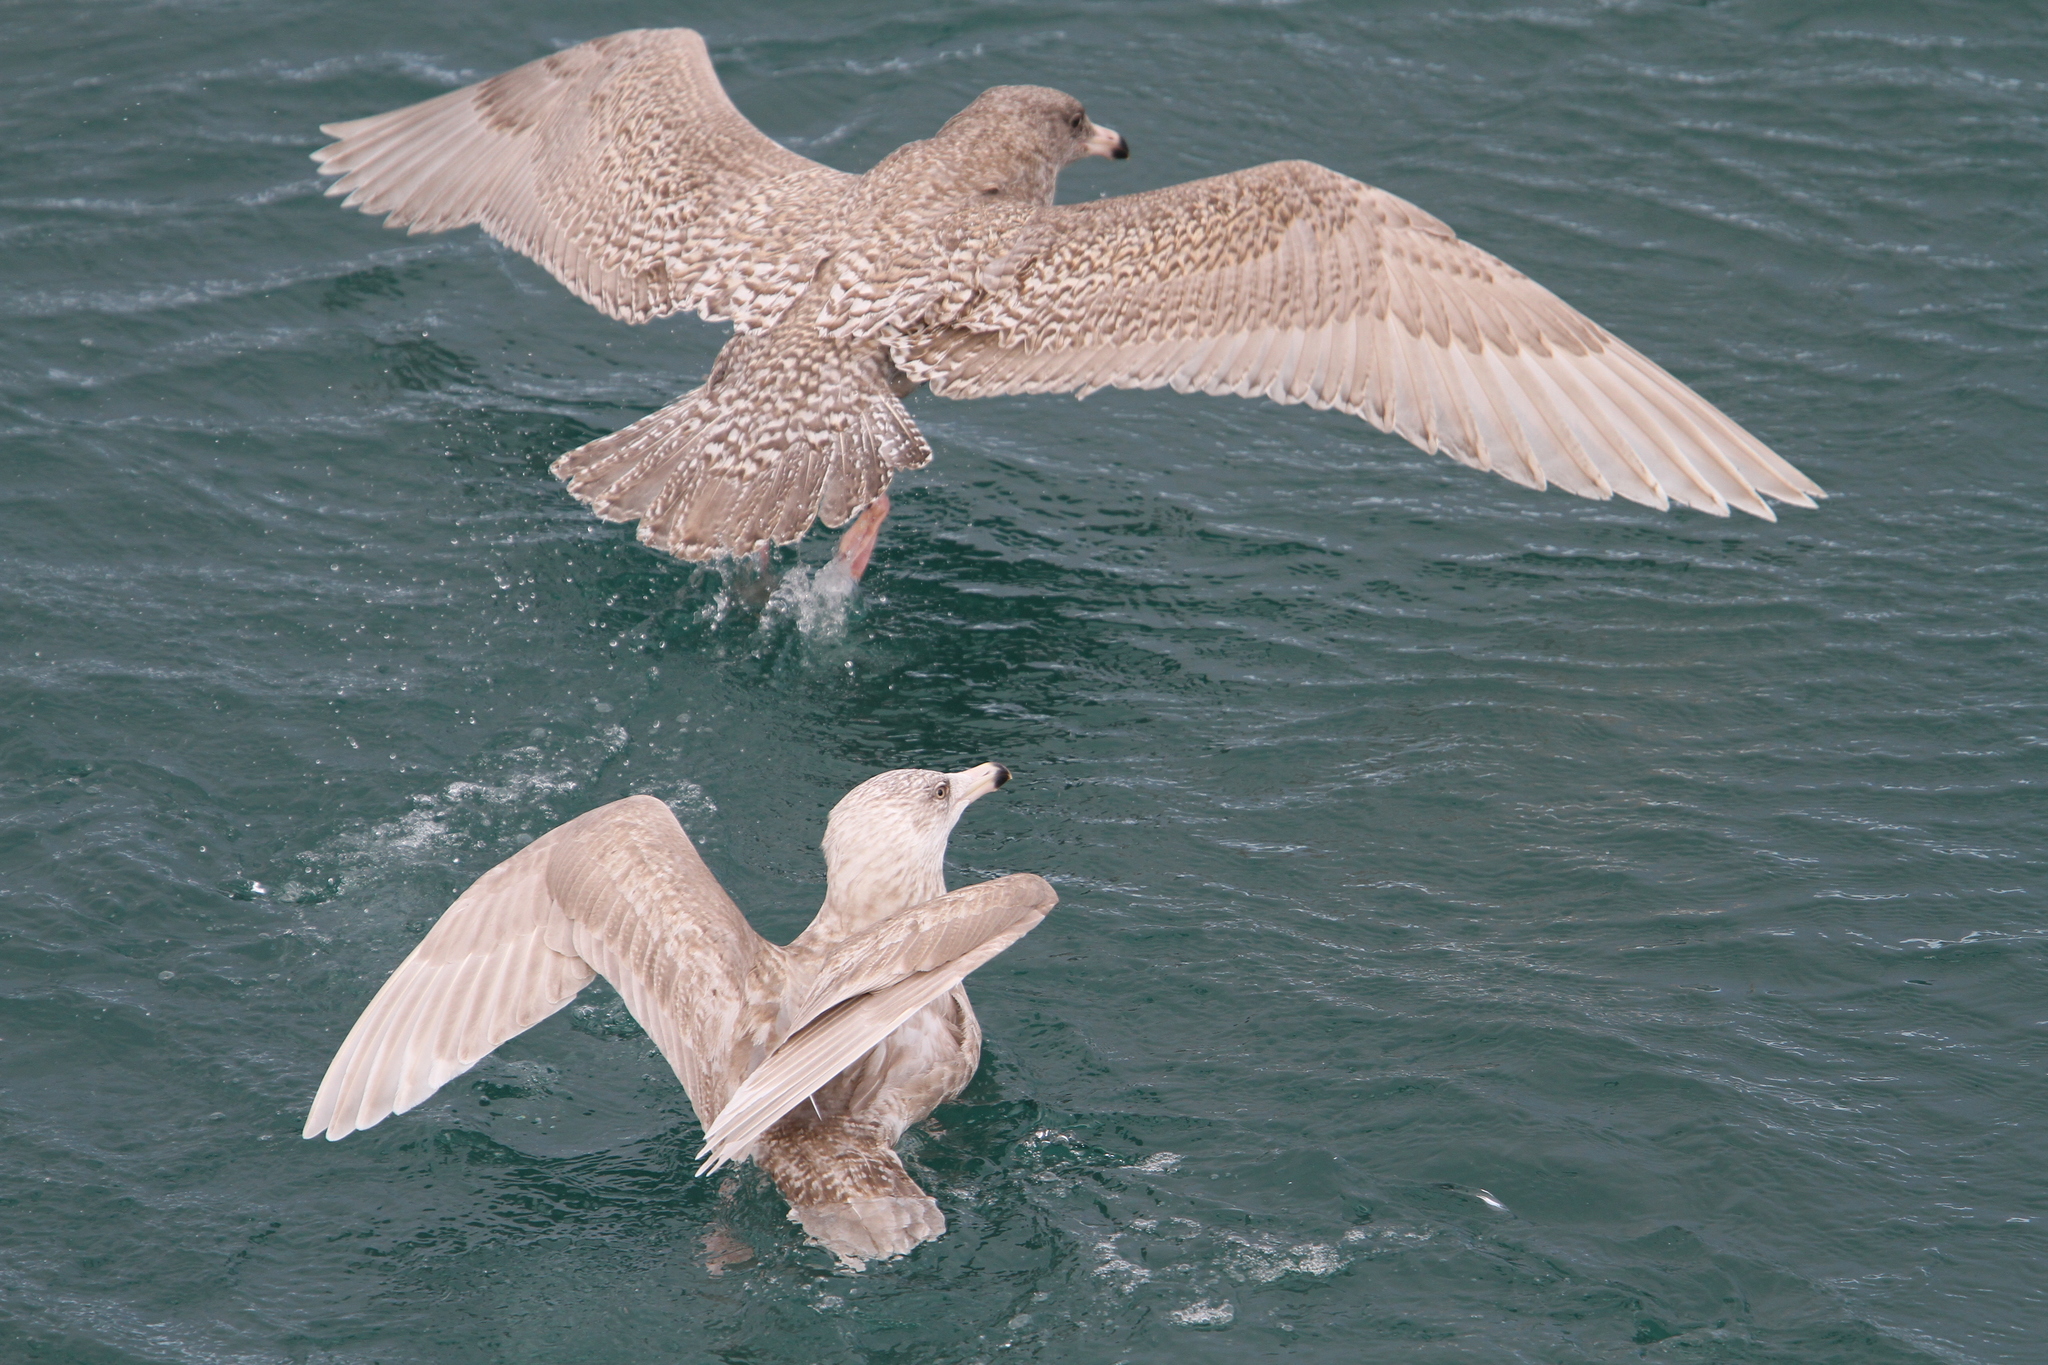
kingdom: Animalia
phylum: Chordata
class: Aves
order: Charadriiformes
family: Laridae
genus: Larus
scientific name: Larus hyperboreus
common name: Glaucous gull
